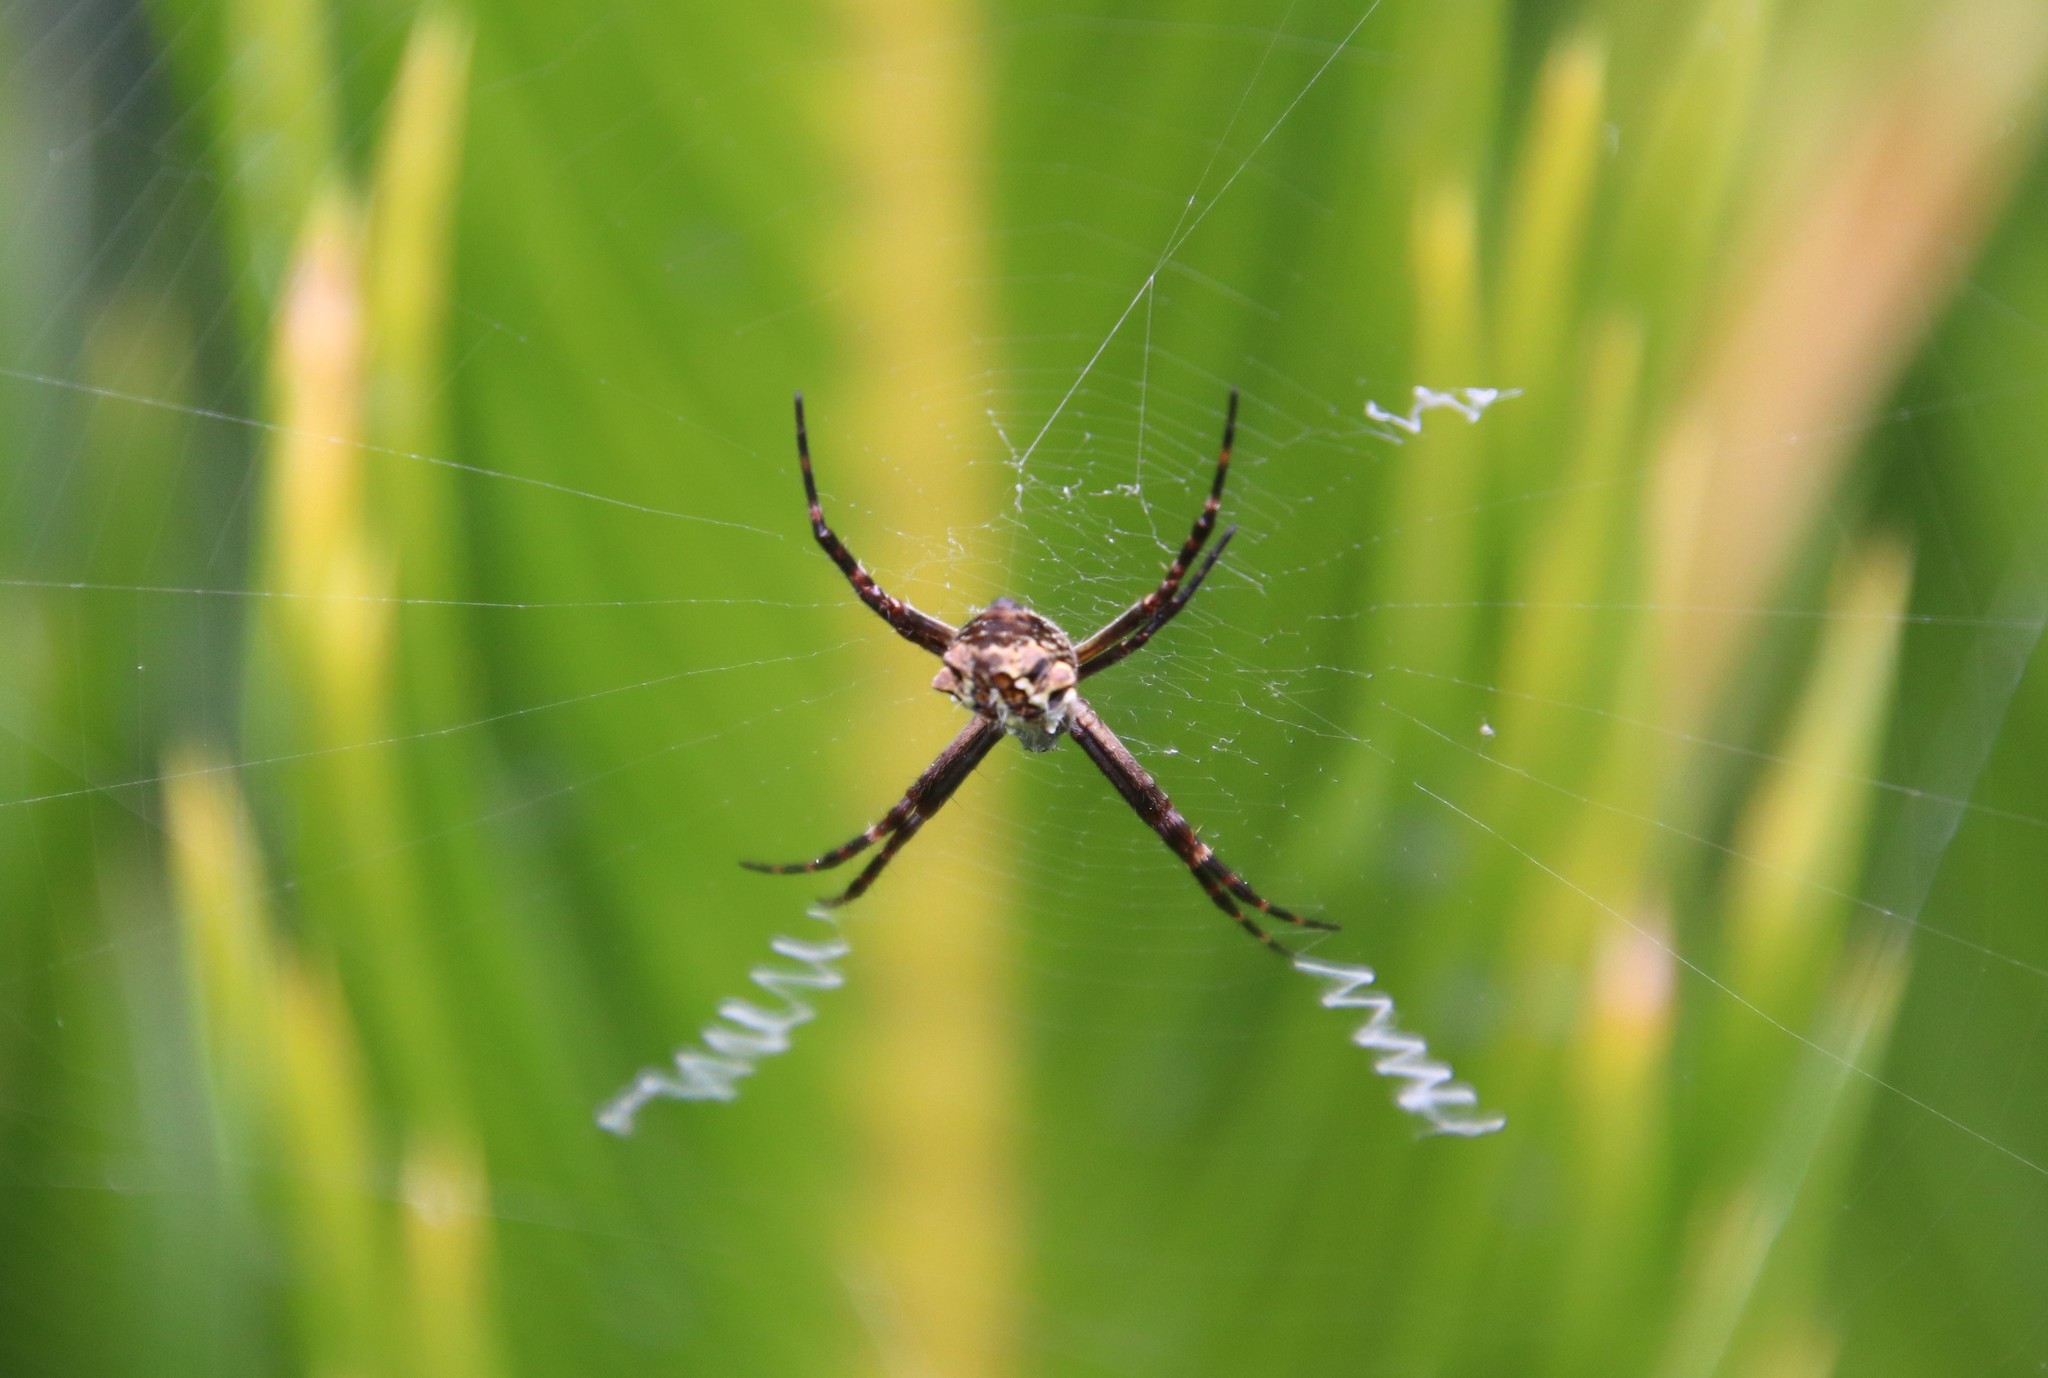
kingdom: Animalia
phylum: Arthropoda
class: Arachnida
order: Araneae
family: Araneidae
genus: Argiope
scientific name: Argiope argentata
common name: Orb weavers
